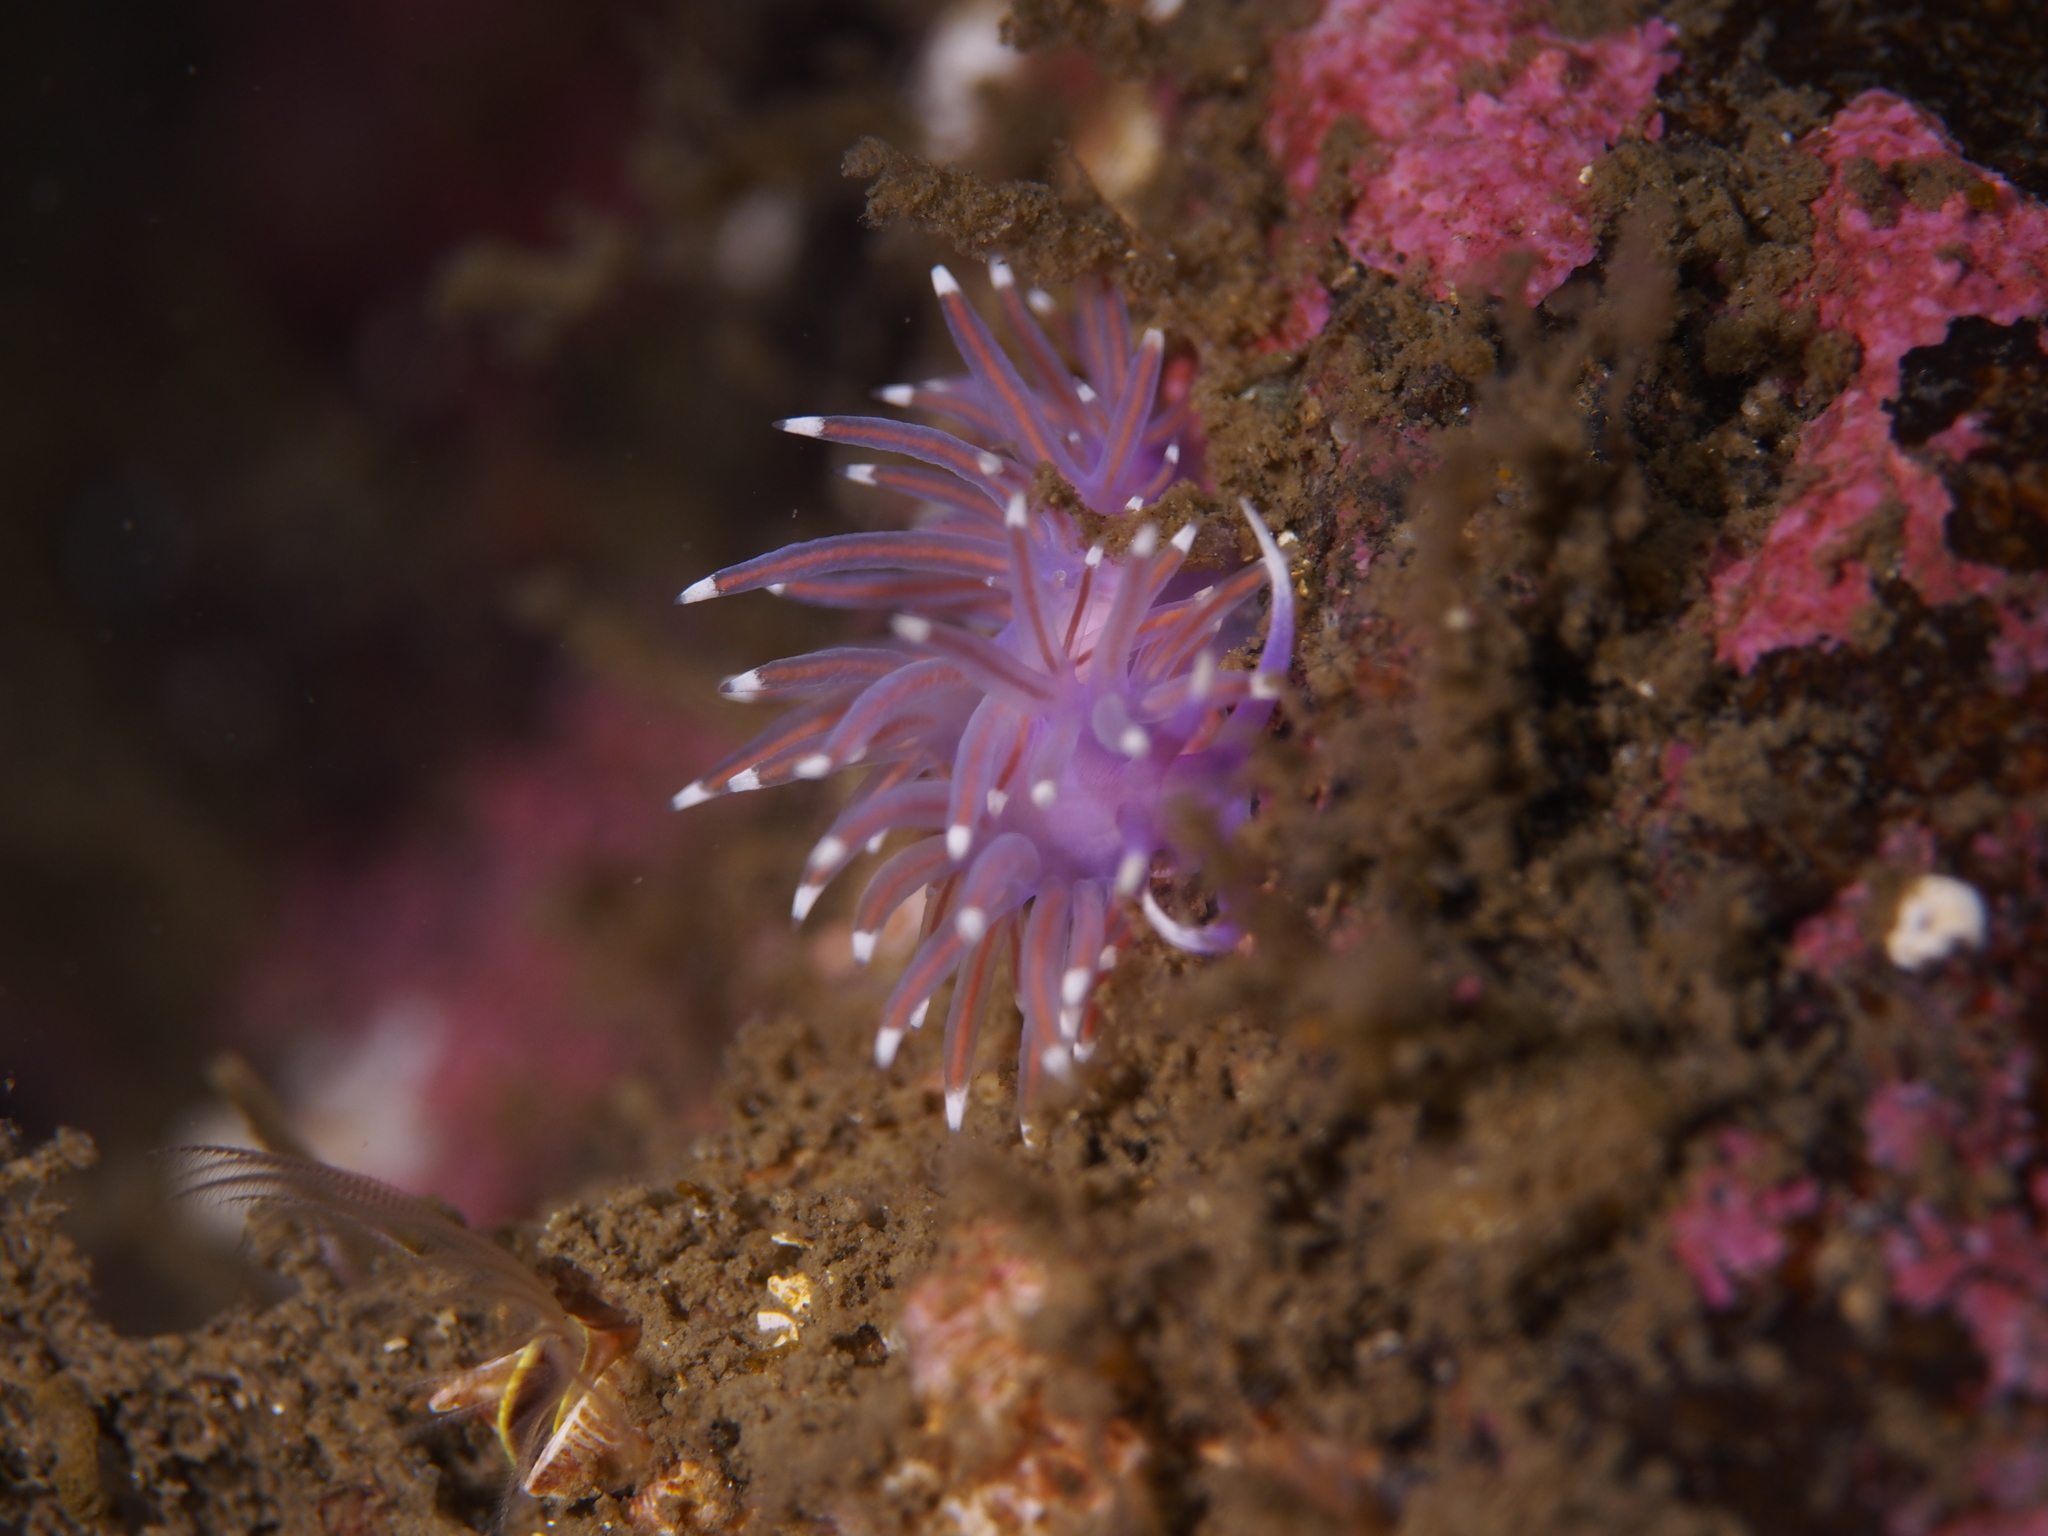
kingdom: Animalia
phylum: Mollusca
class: Gastropoda
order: Nudibranchia
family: Flabellinidae
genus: Edmundsella
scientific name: Edmundsella pedata
